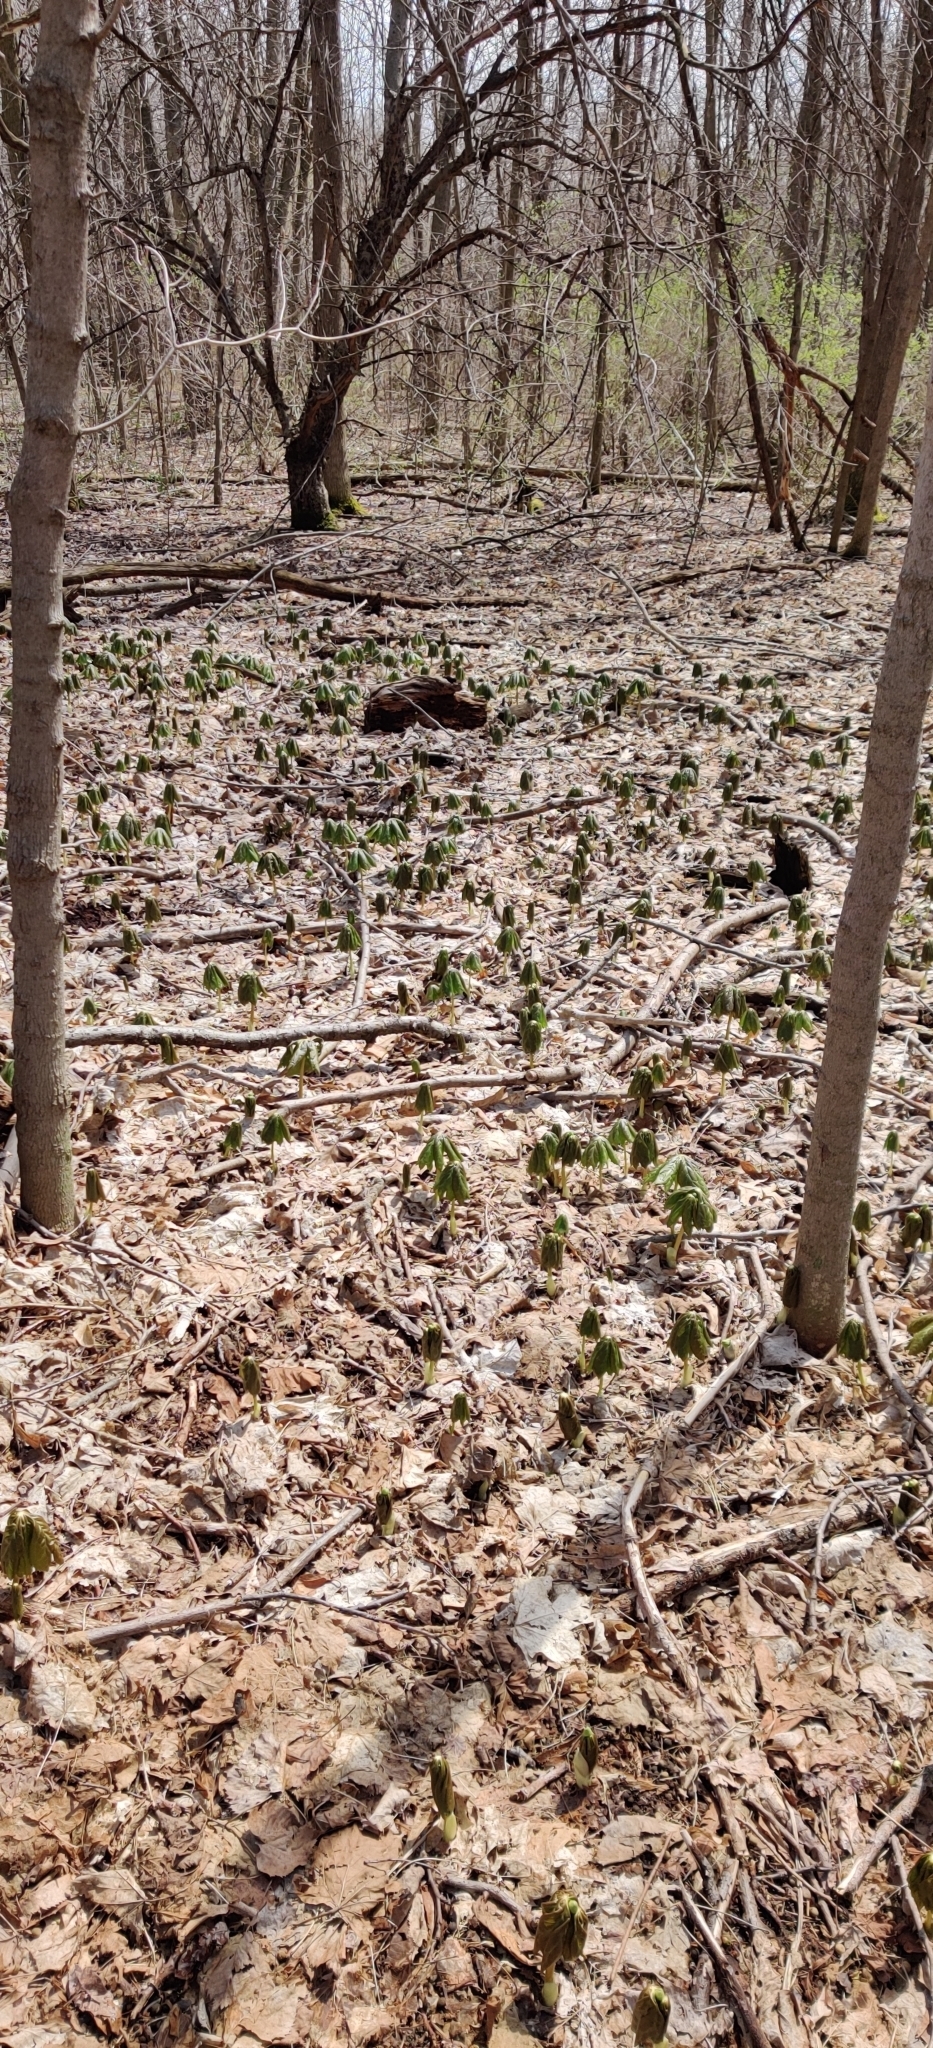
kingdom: Plantae
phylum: Tracheophyta
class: Magnoliopsida
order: Ranunculales
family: Berberidaceae
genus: Podophyllum
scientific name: Podophyllum peltatum
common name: Wild mandrake
